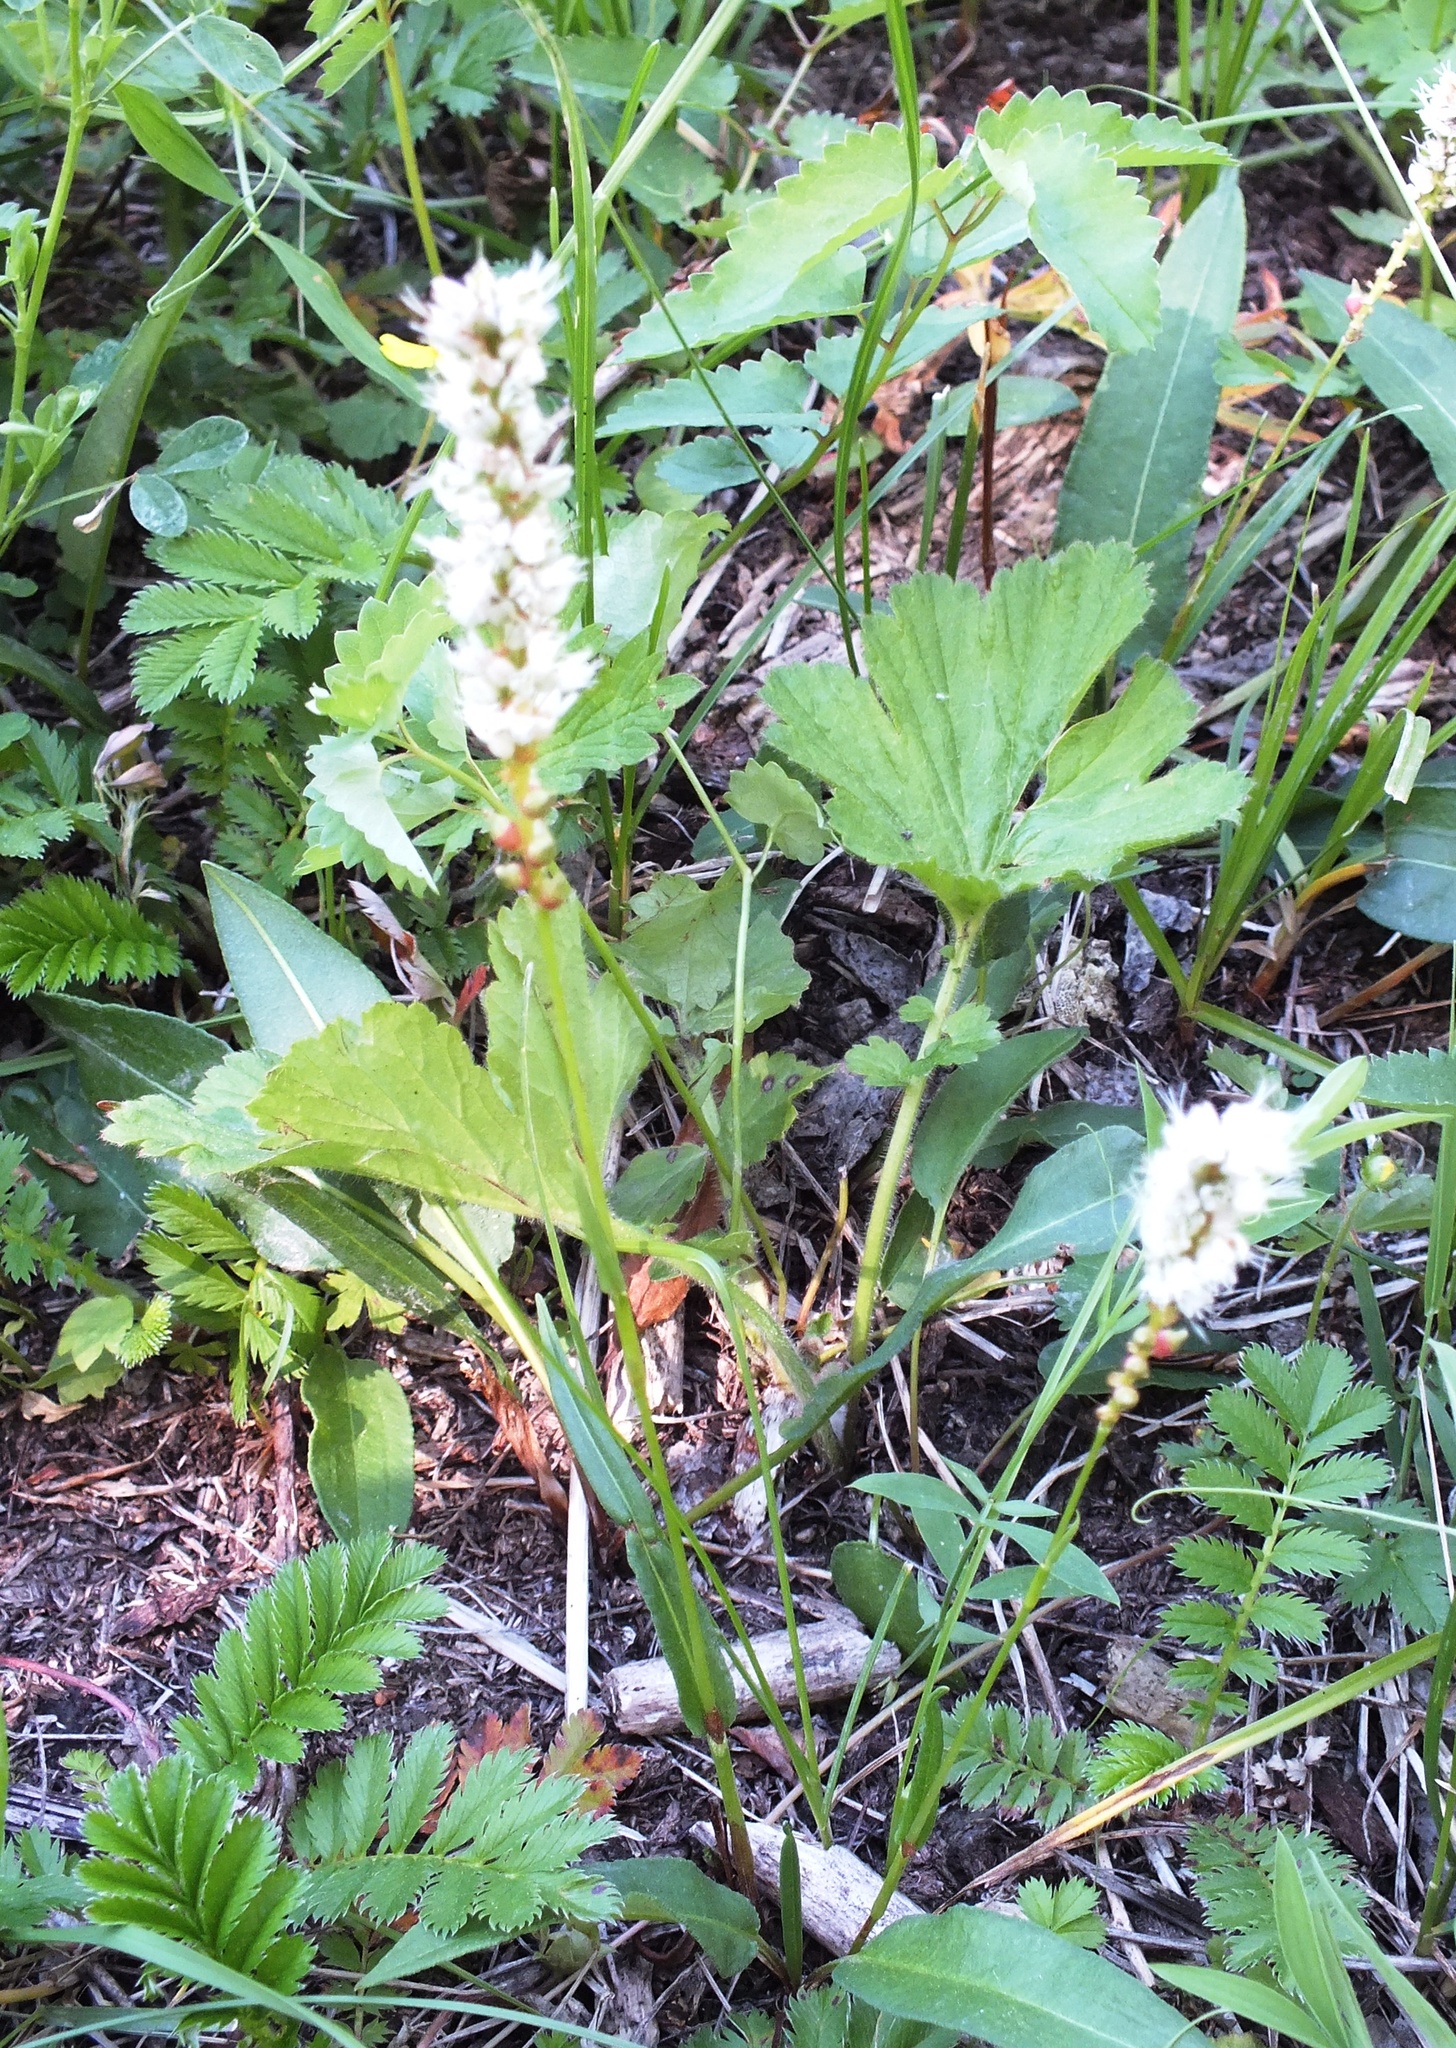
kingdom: Plantae
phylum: Tracheophyta
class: Magnoliopsida
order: Caryophyllales
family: Polygonaceae
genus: Bistorta
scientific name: Bistorta vivipara
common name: Alpine bistort
